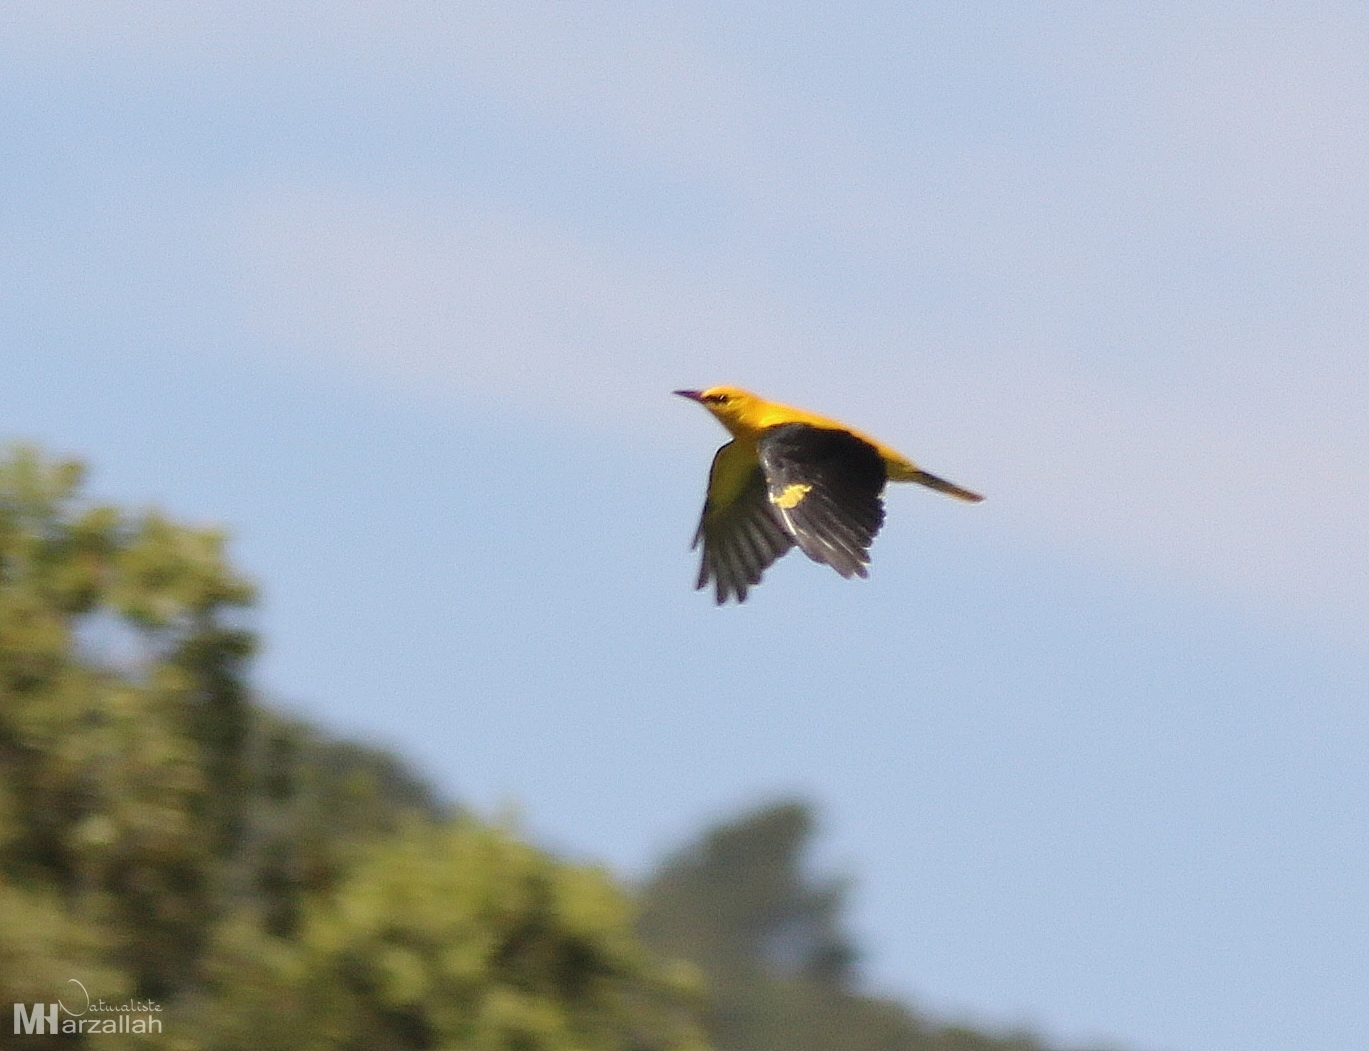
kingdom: Animalia
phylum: Chordata
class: Aves
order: Passeriformes
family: Oriolidae
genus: Oriolus
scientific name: Oriolus oriolus
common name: Eurasian golden oriole
